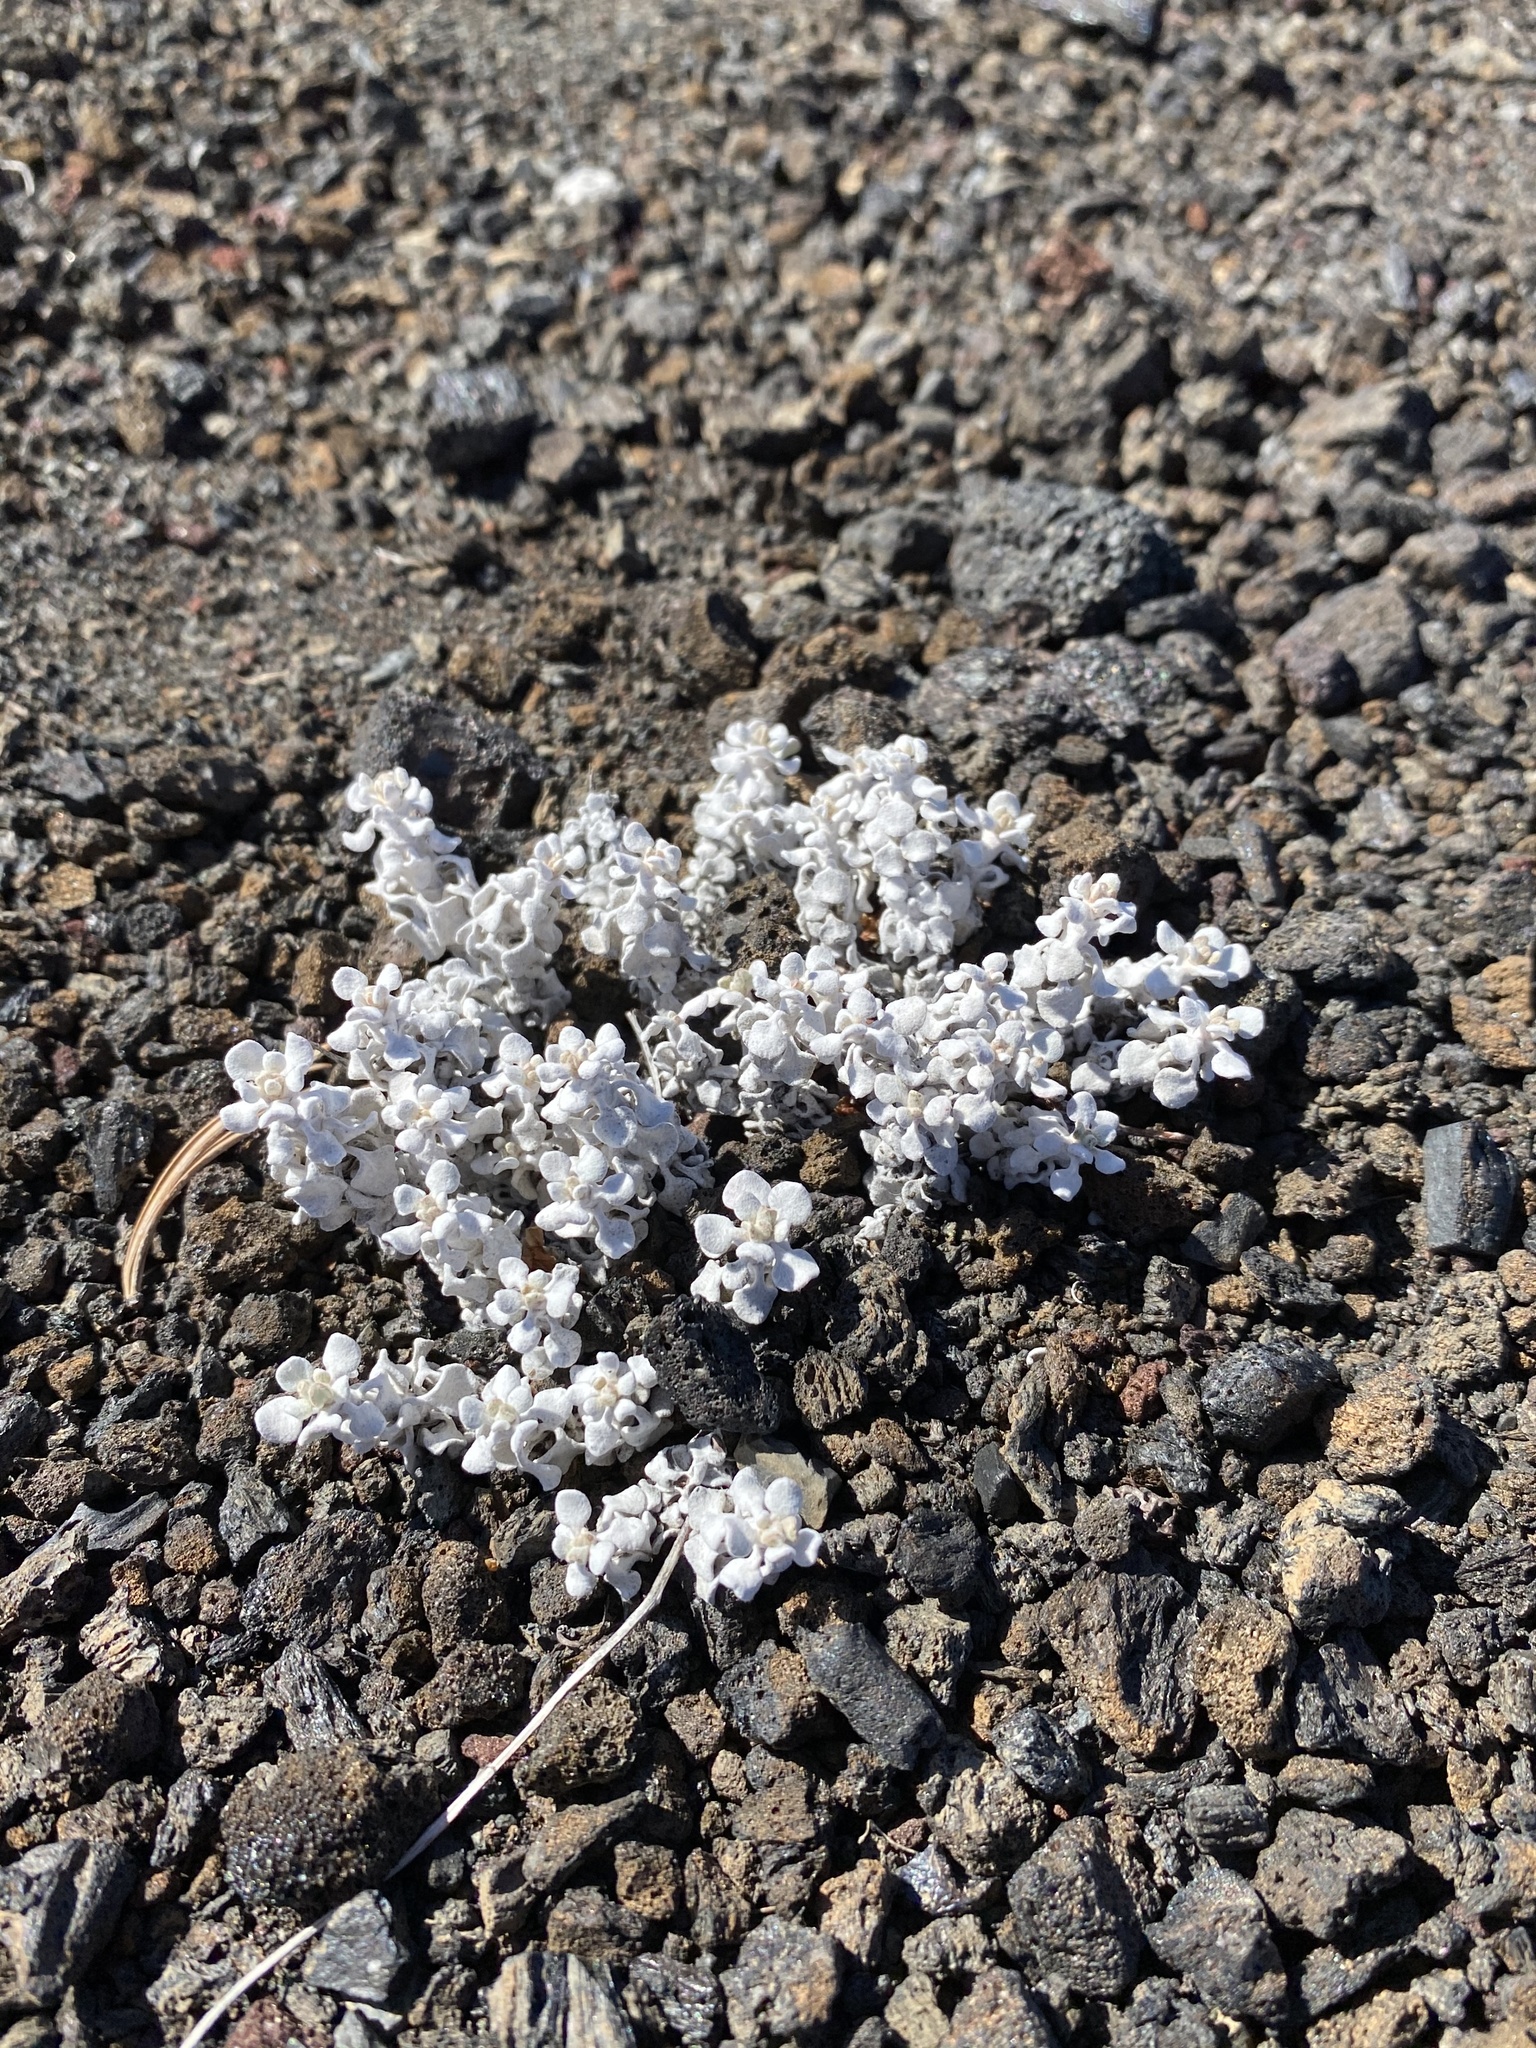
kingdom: Plantae
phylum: Tracheophyta
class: Magnoliopsida
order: Caryophyllales
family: Polygonaceae
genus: Eriogonum
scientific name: Eriogonum ovalifolium
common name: Cushion buckwheat
